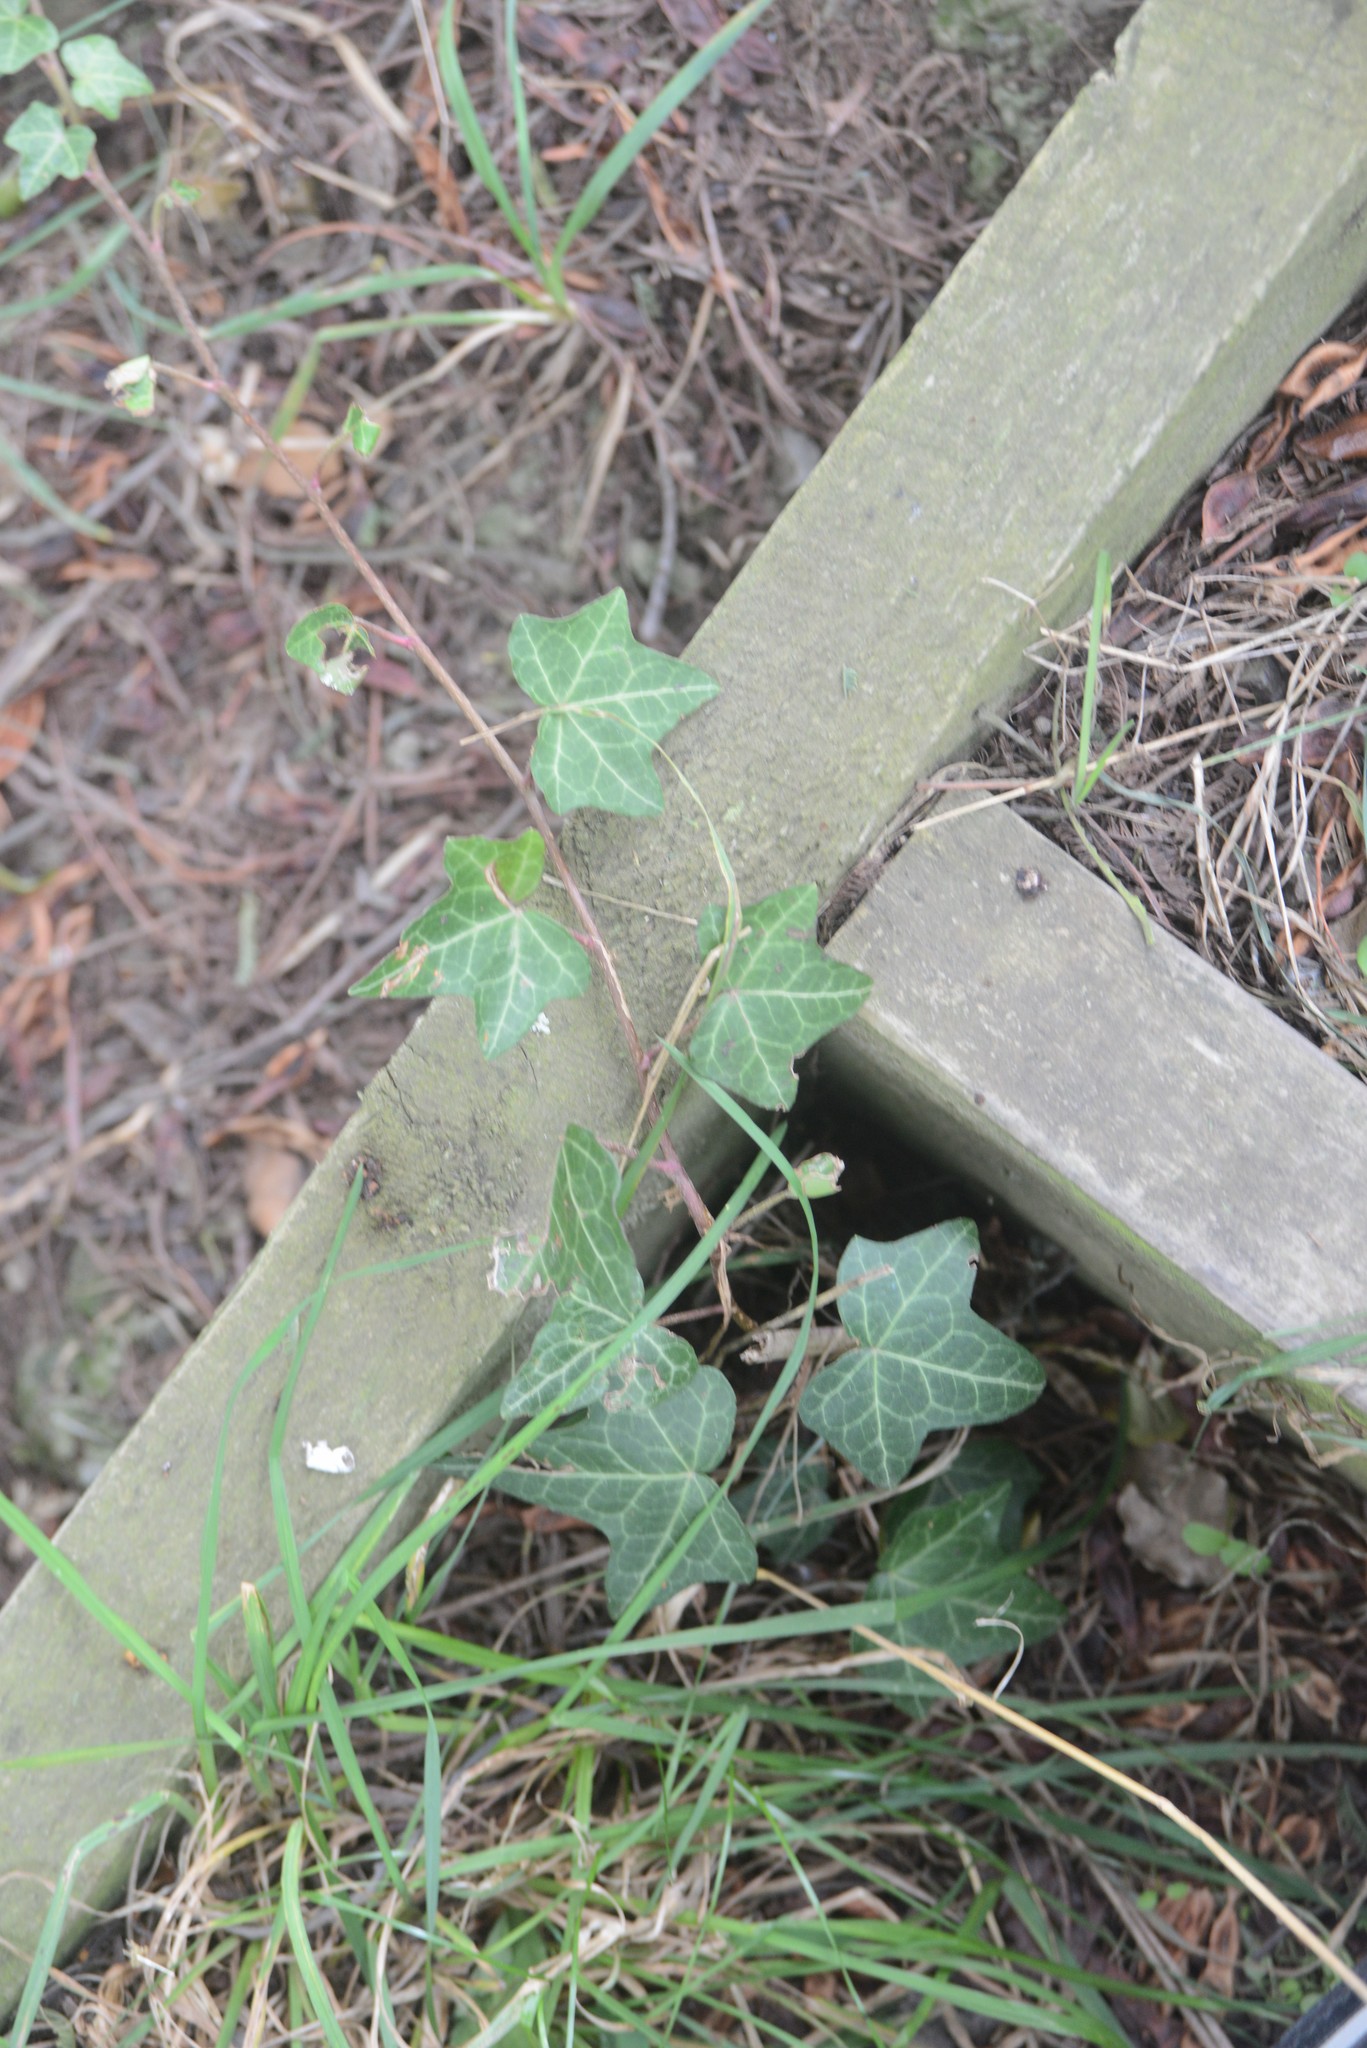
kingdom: Plantae
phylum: Tracheophyta
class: Magnoliopsida
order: Apiales
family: Araliaceae
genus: Hedera
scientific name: Hedera helix
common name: Ivy
